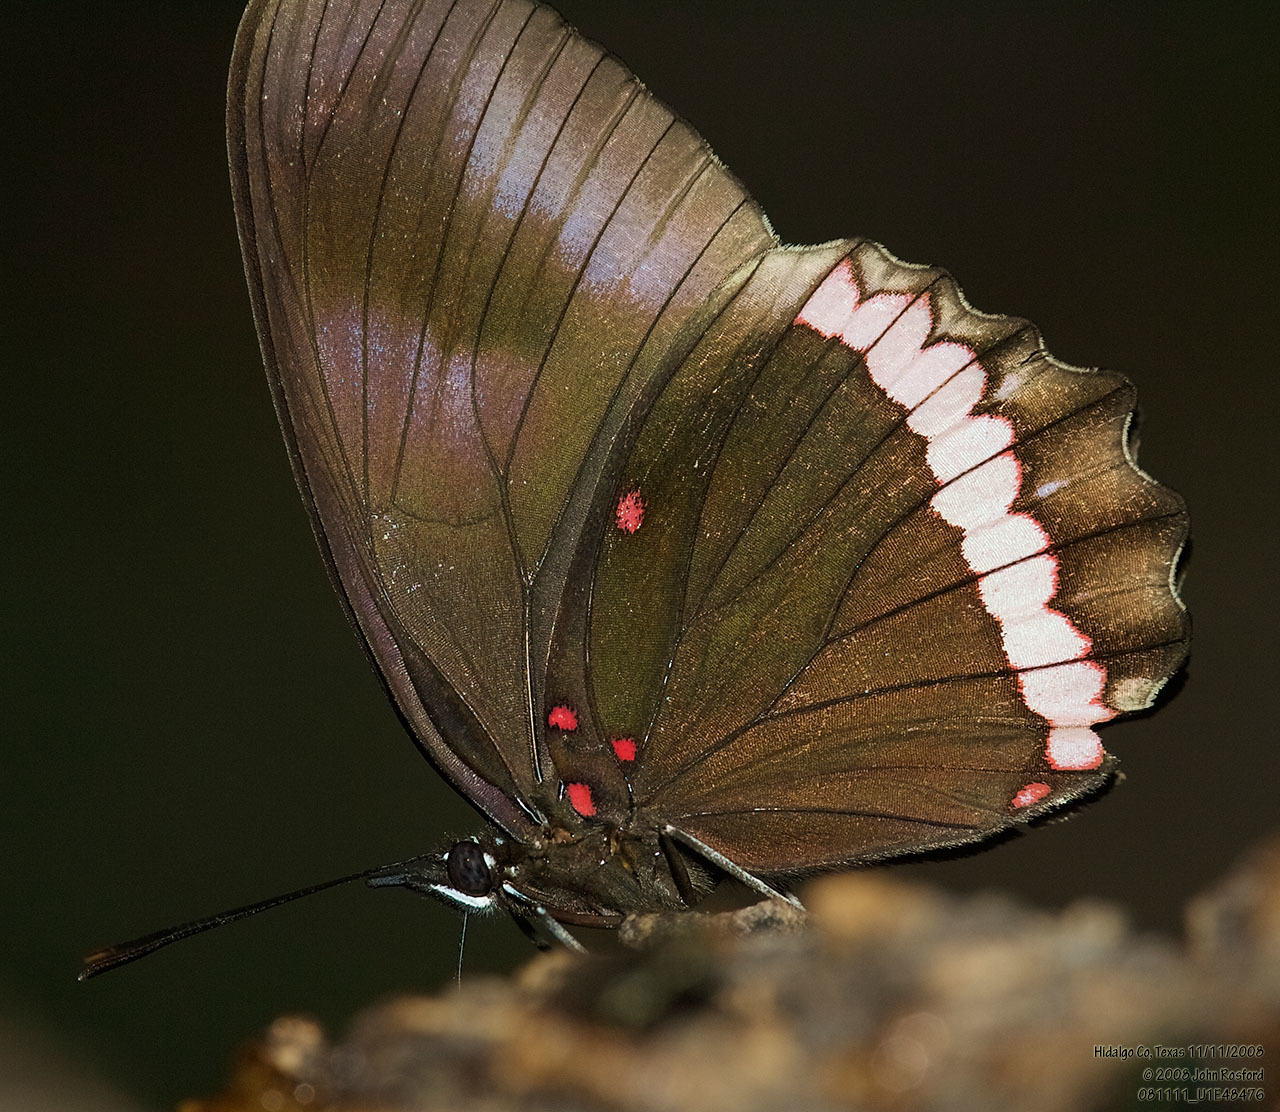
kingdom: Animalia
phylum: Arthropoda
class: Insecta
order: Lepidoptera
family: Nymphalidae
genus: Biblis
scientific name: Biblis aganisa
